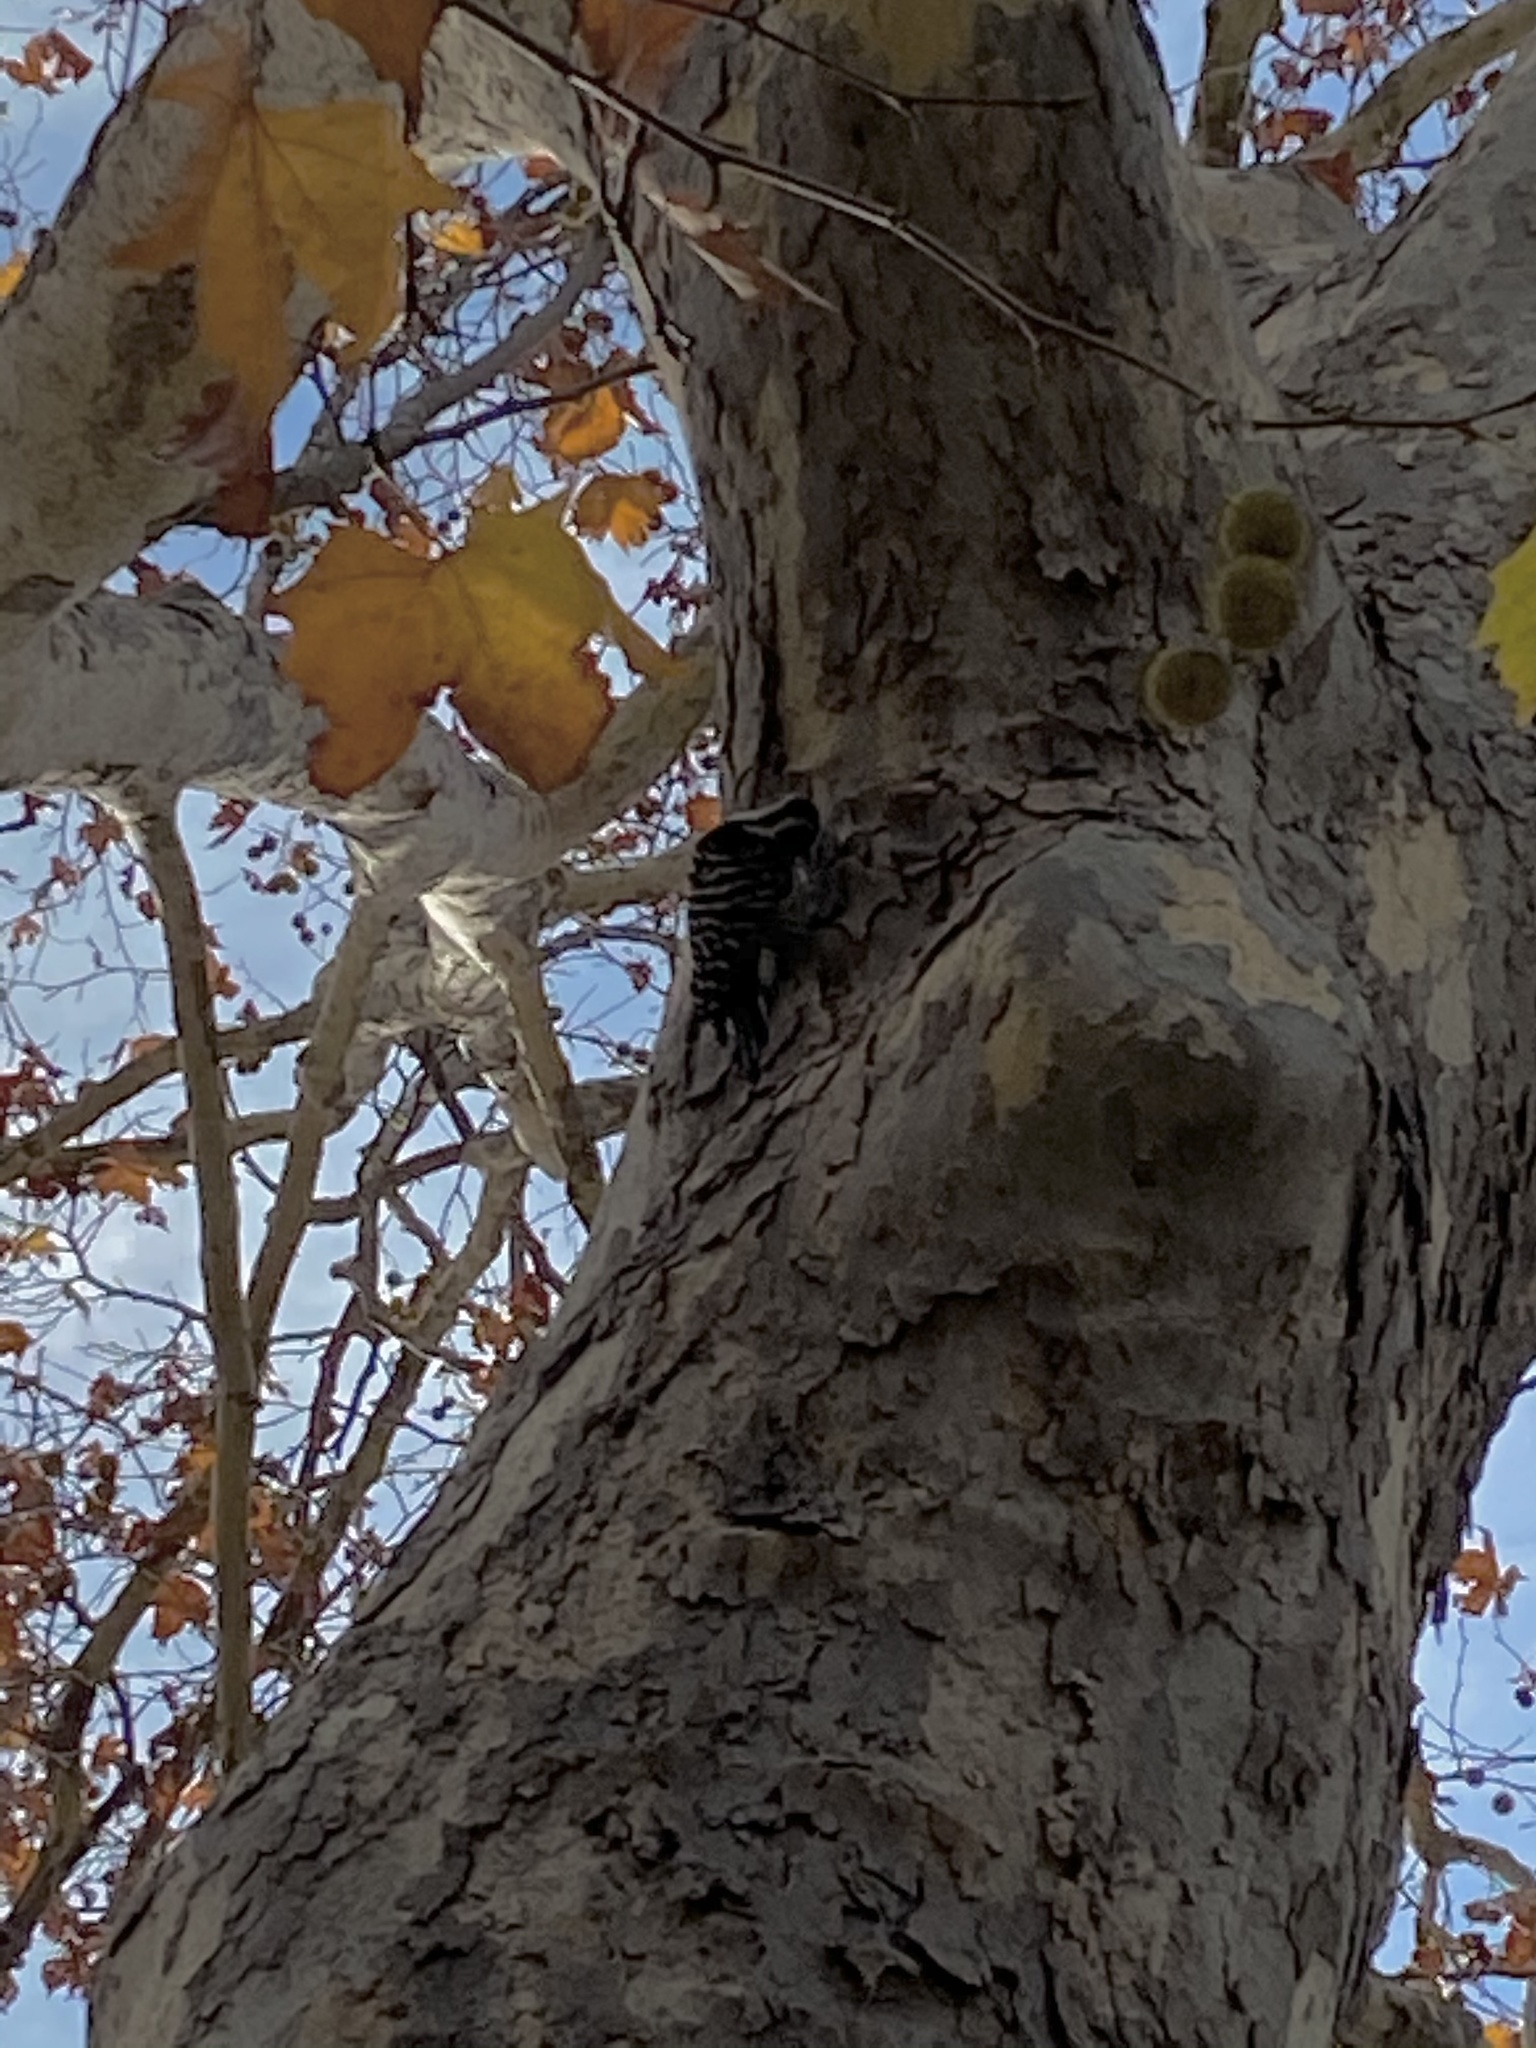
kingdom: Animalia
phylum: Chordata
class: Aves
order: Piciformes
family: Picidae
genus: Dryobates
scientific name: Dryobates nuttallii
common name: Nuttall's woodpecker
